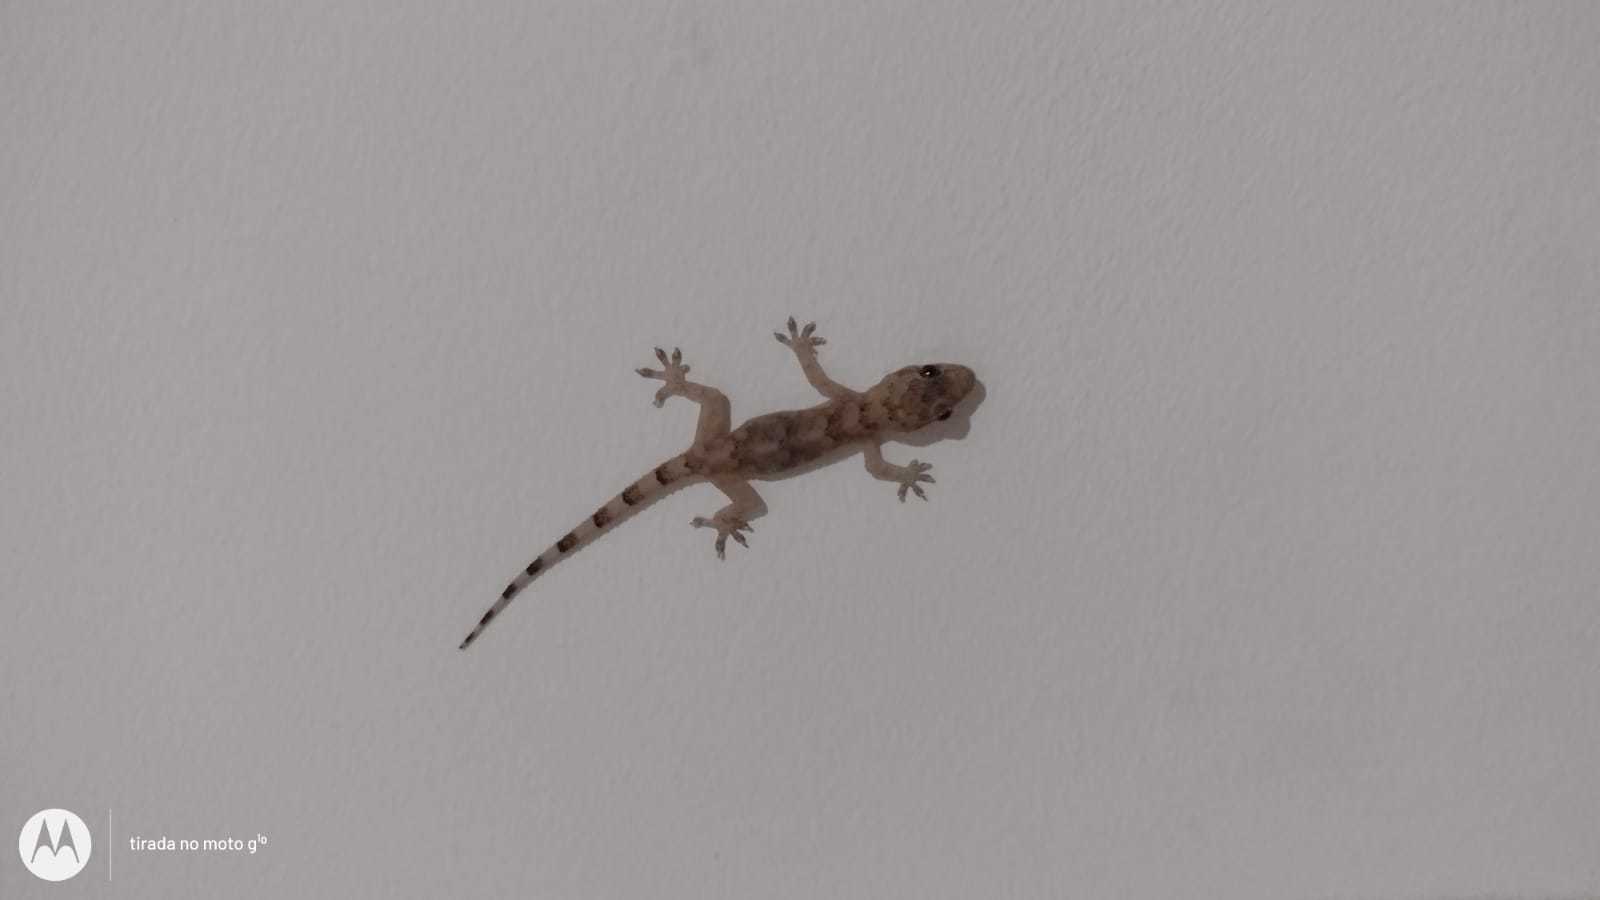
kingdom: Animalia
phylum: Chordata
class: Squamata
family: Gekkonidae
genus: Hemidactylus
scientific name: Hemidactylus mabouia
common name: House gecko
